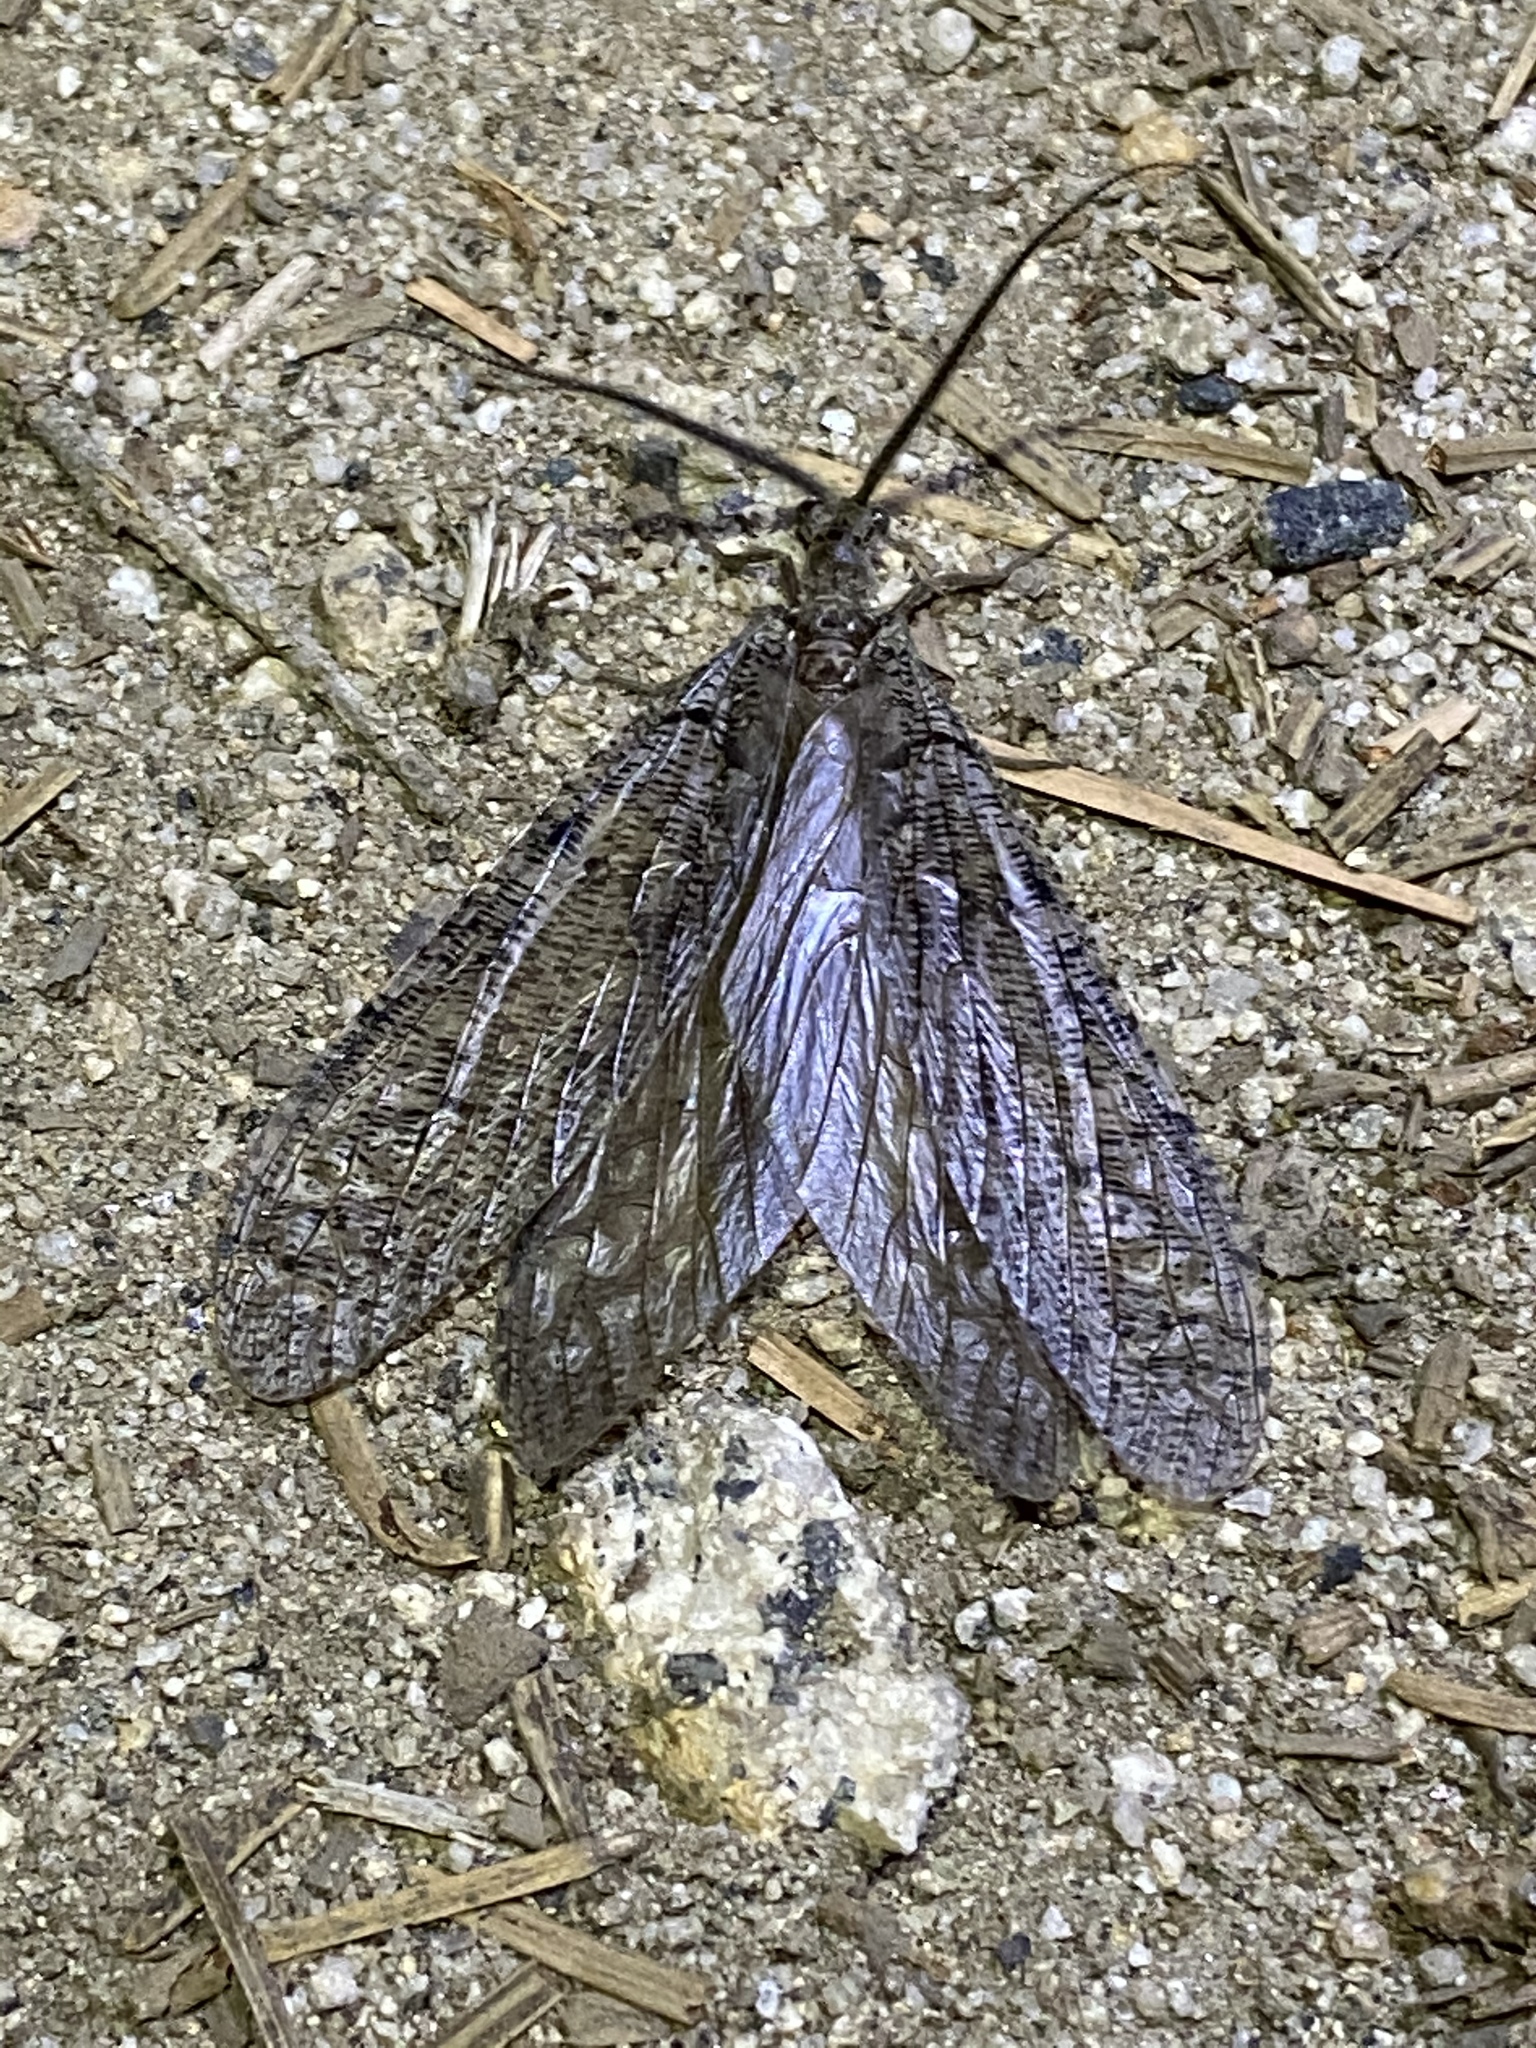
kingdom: Animalia
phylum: Arthropoda
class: Insecta
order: Megaloptera
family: Corydalidae
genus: Neohermes
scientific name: Neohermes californicus
